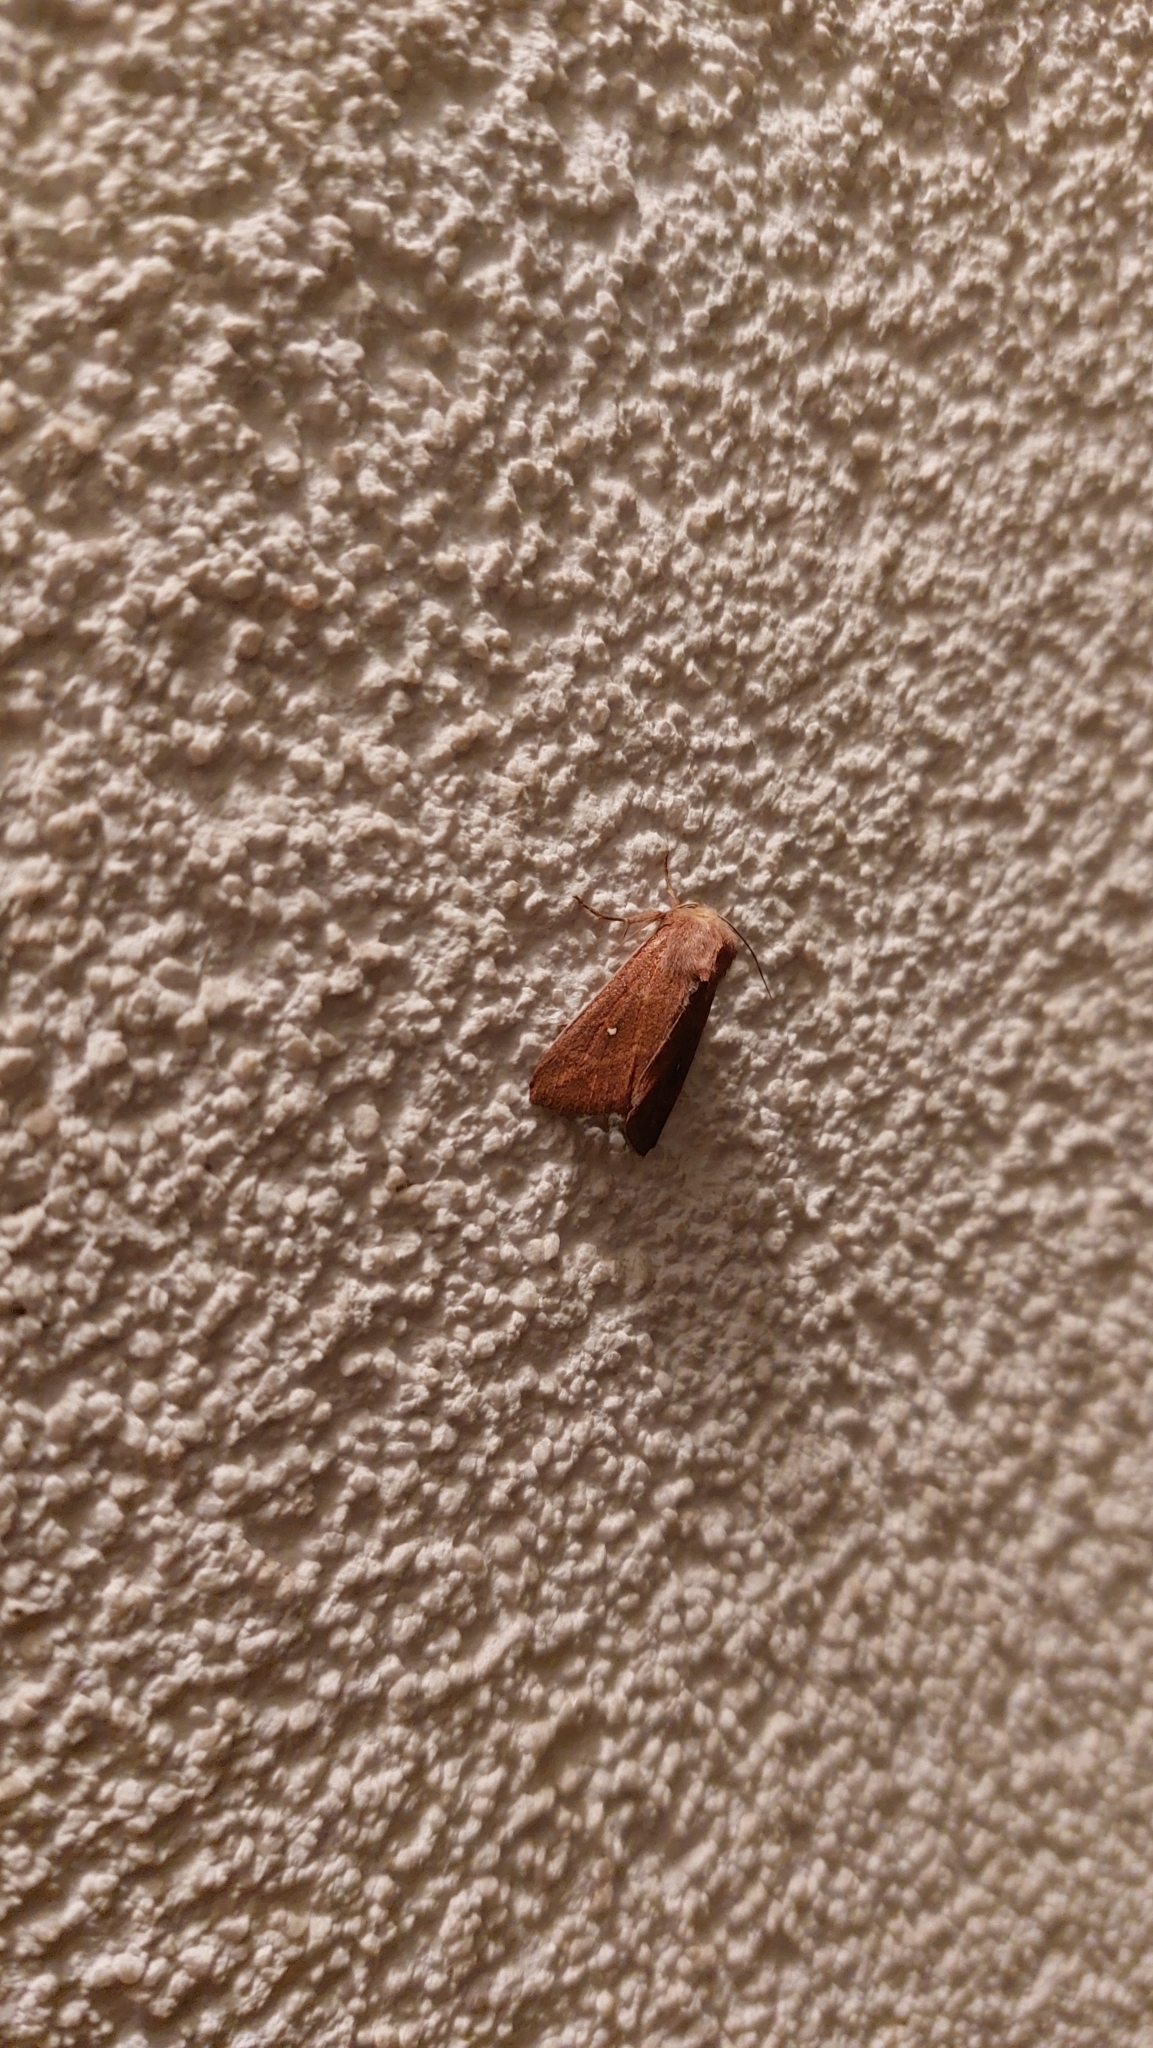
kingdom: Animalia
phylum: Arthropoda
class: Insecta
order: Lepidoptera
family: Noctuidae
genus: Mythimna
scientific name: Mythimna albipuncta
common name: White-point
